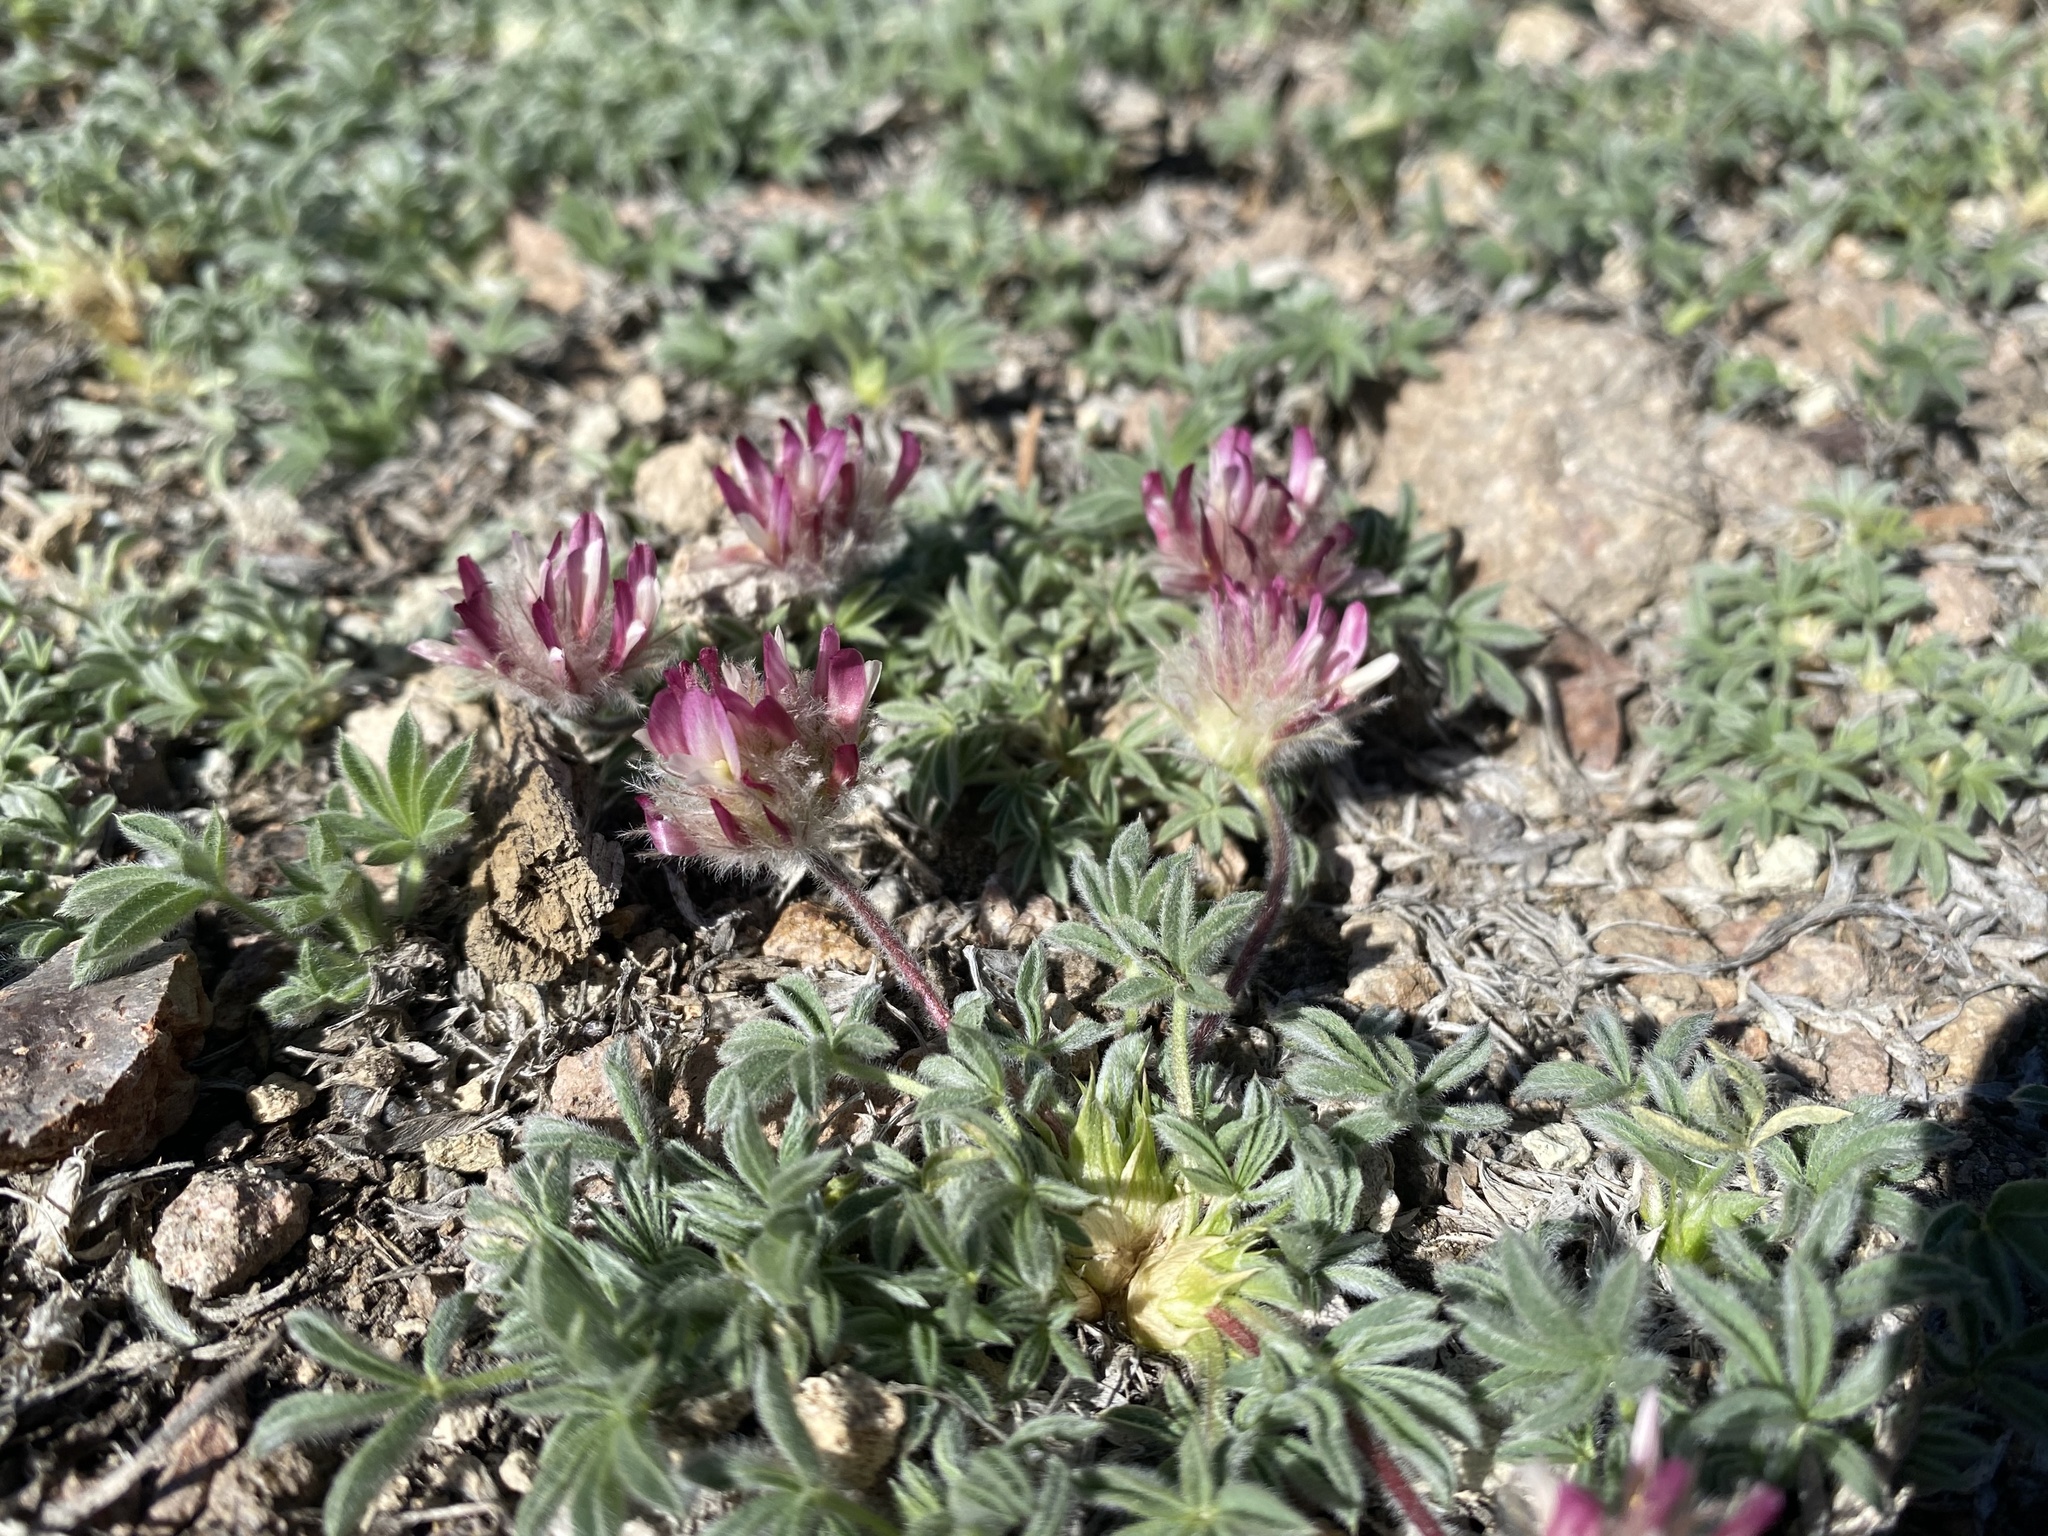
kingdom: Plantae
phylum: Tracheophyta
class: Magnoliopsida
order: Fabales
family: Fabaceae
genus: Trifolium
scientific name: Trifolium andersonii
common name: Anderson's clover
